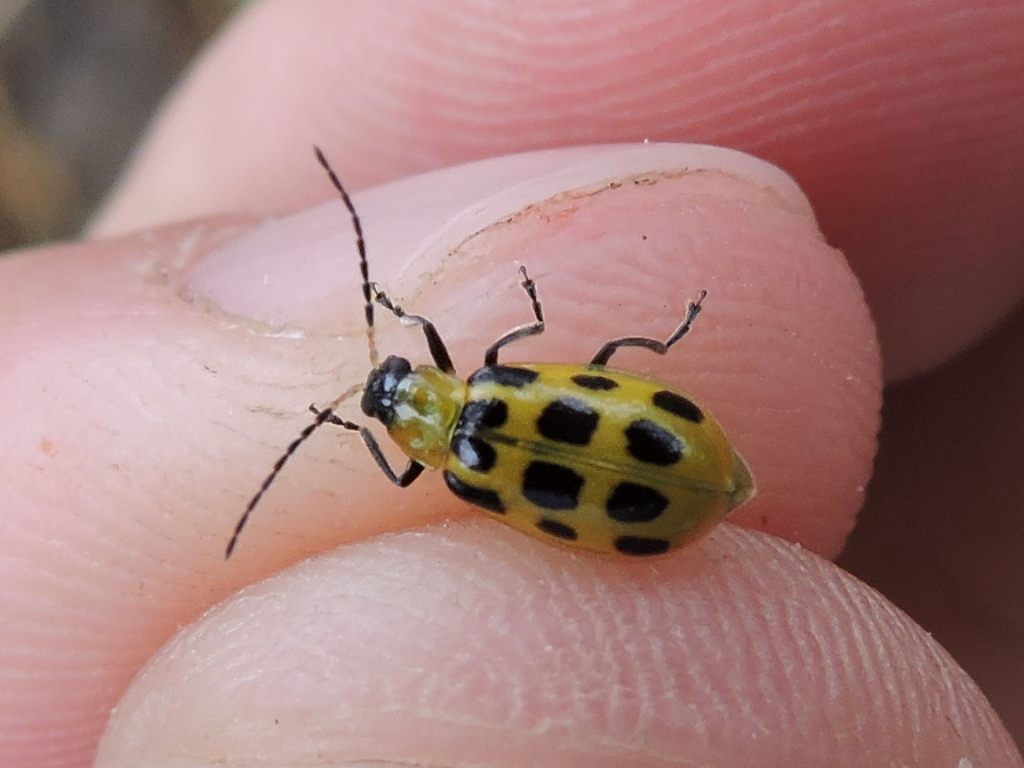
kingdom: Animalia
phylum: Arthropoda
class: Insecta
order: Coleoptera
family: Chrysomelidae
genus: Diabrotica
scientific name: Diabrotica undecimpunctata
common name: Spotted cucumber beetle
